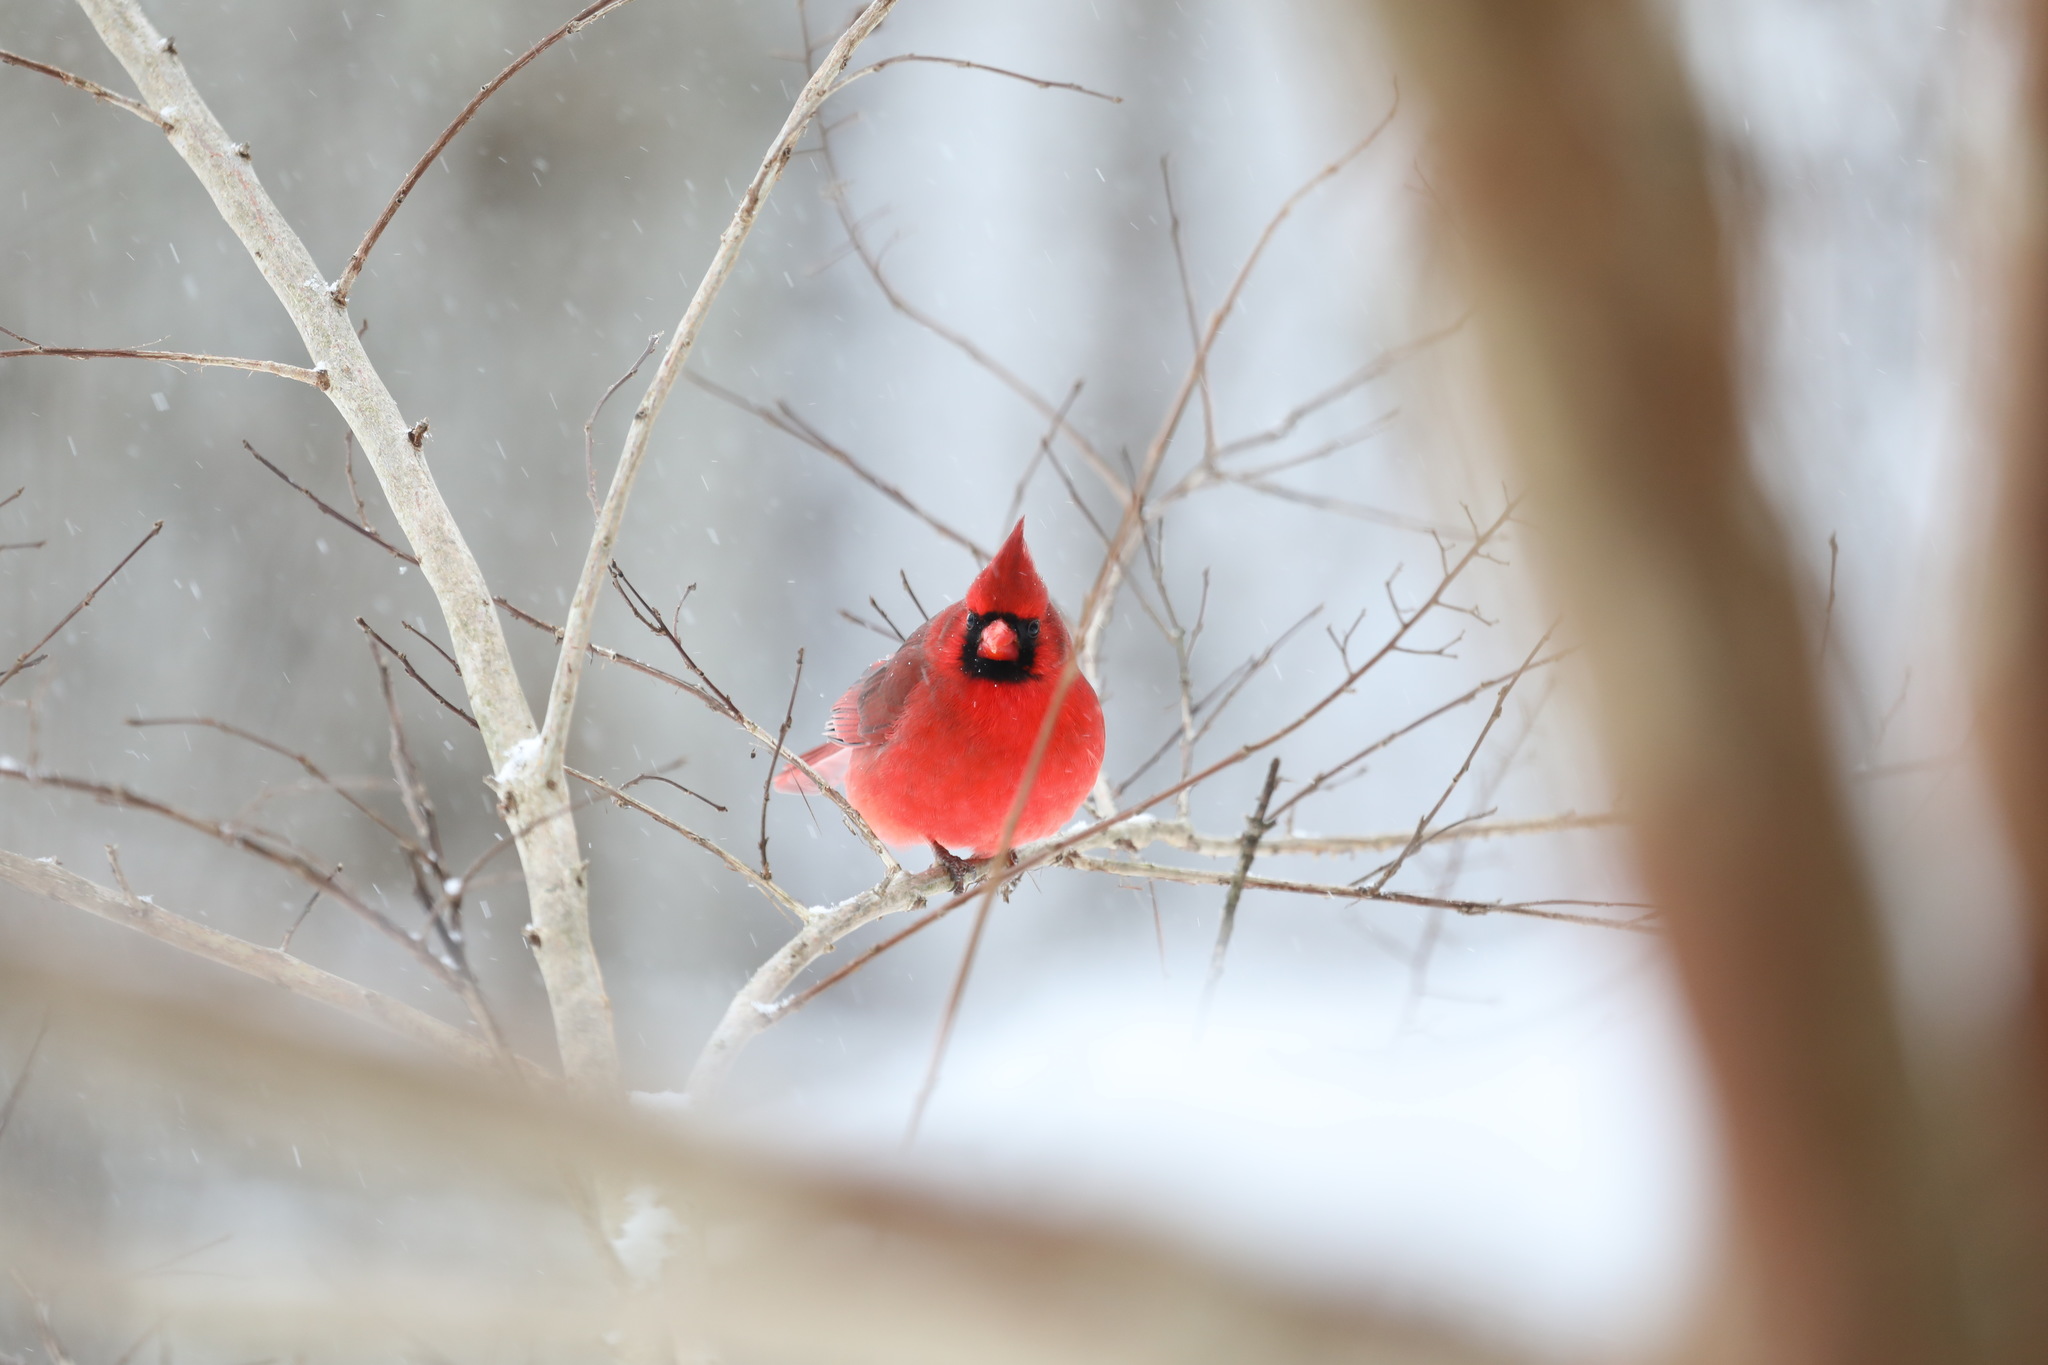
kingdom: Animalia
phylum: Chordata
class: Aves
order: Passeriformes
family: Cardinalidae
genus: Cardinalis
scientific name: Cardinalis cardinalis
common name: Northern cardinal
